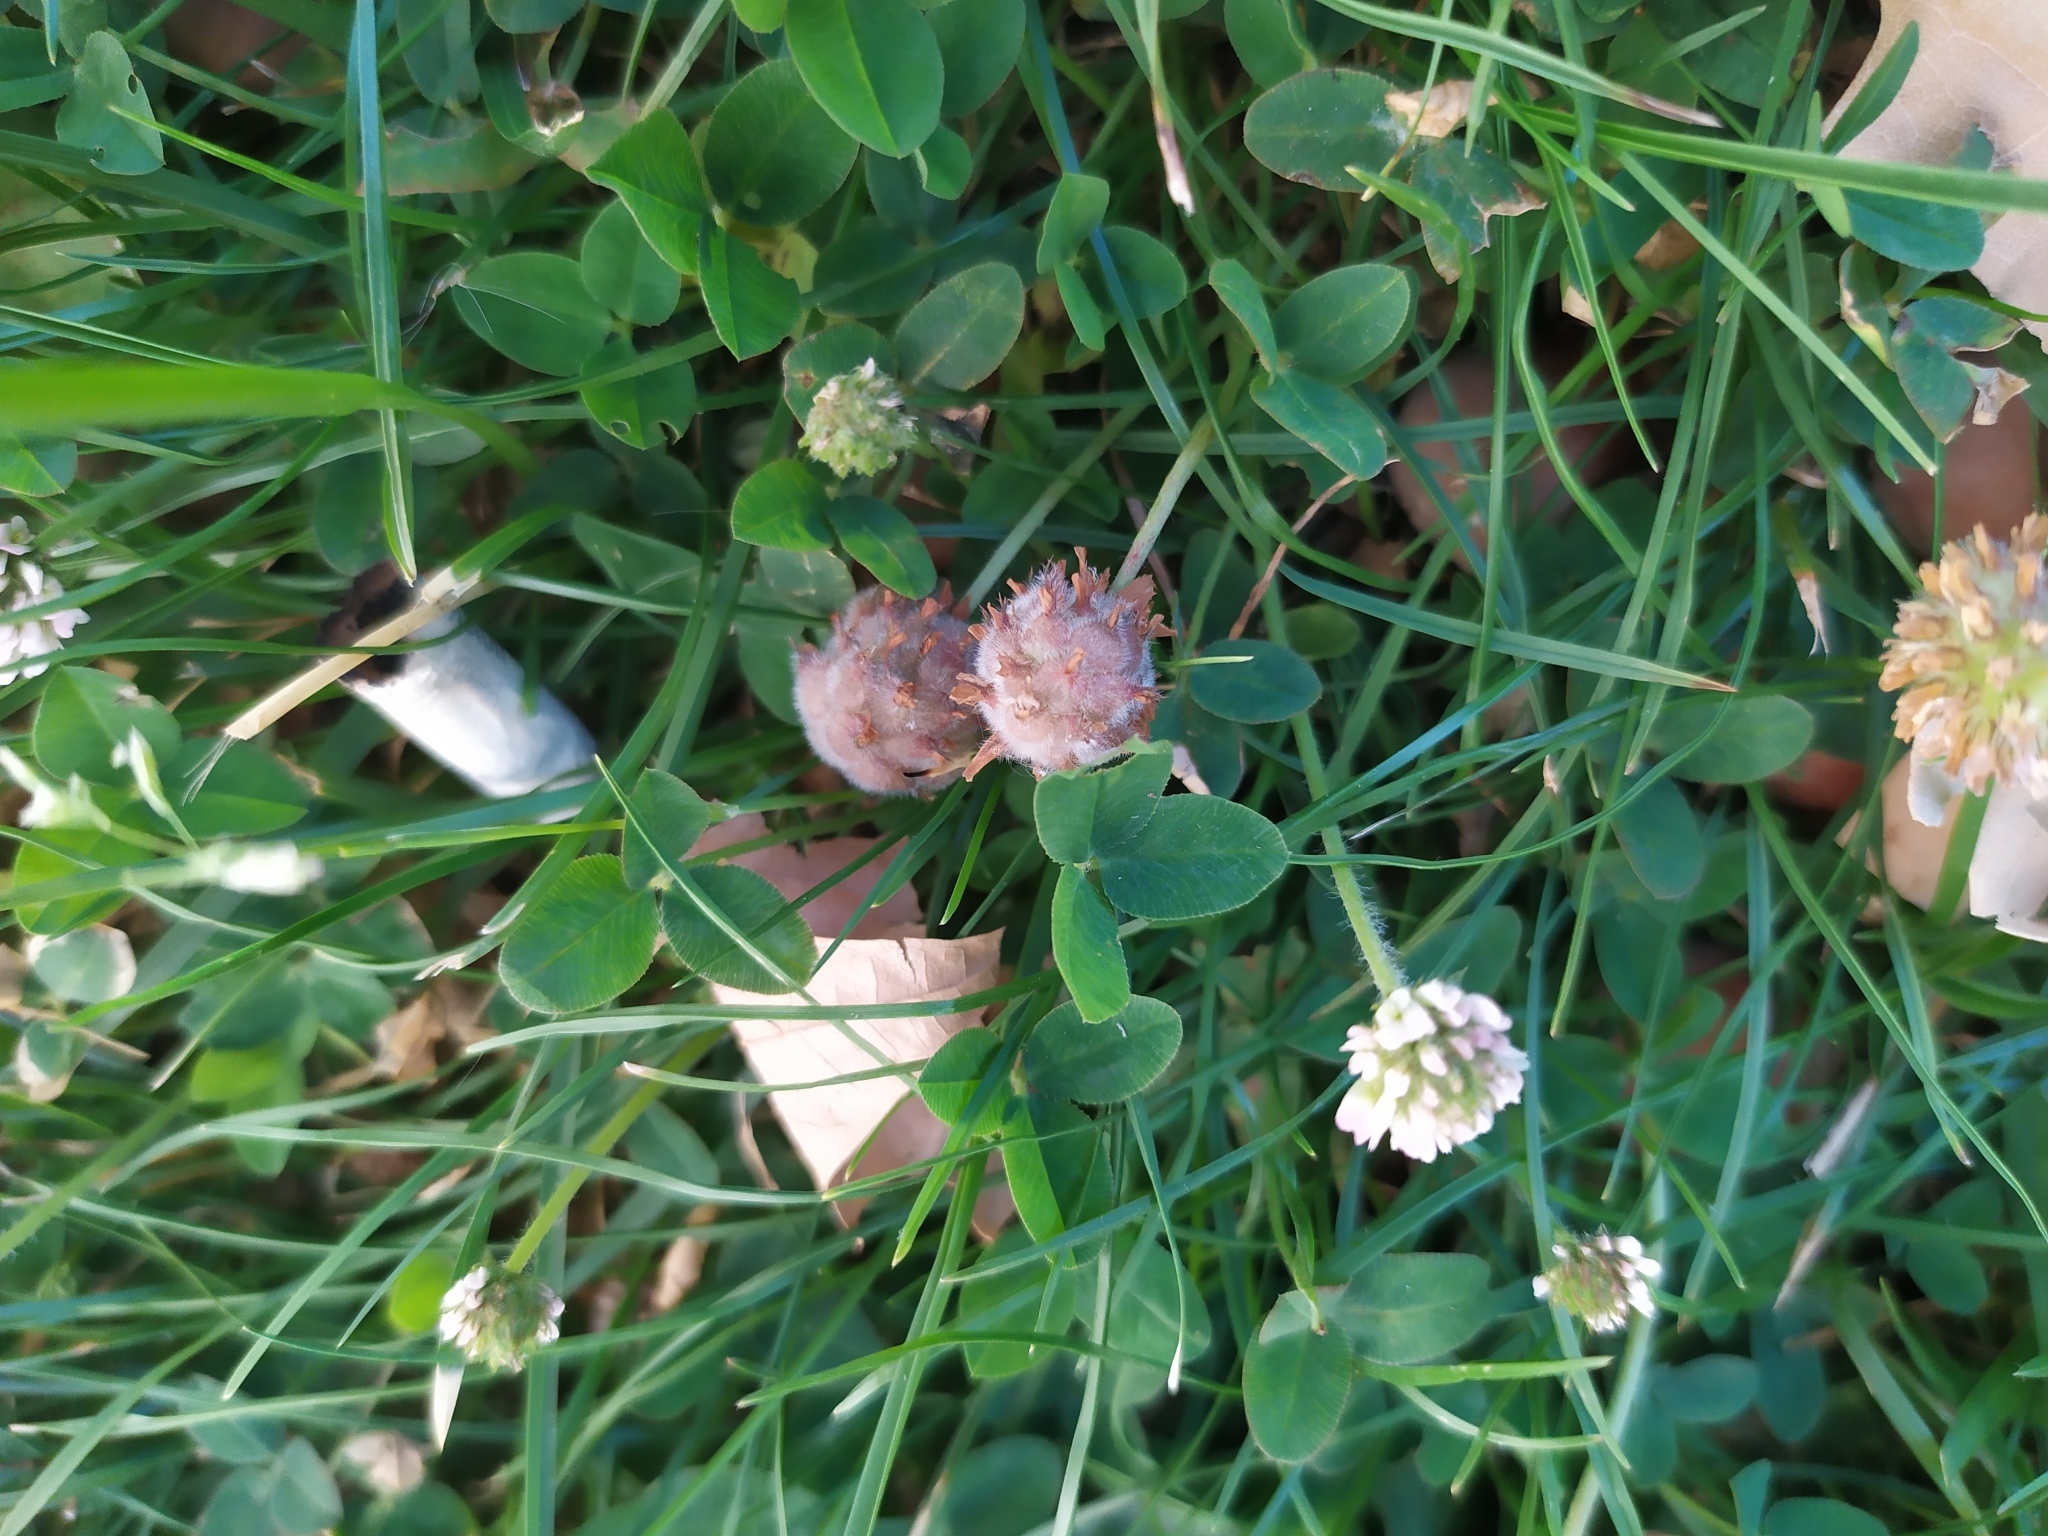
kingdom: Plantae
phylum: Tracheophyta
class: Magnoliopsida
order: Fabales
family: Fabaceae
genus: Trifolium
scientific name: Trifolium fragiferum
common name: Strawberry clover
